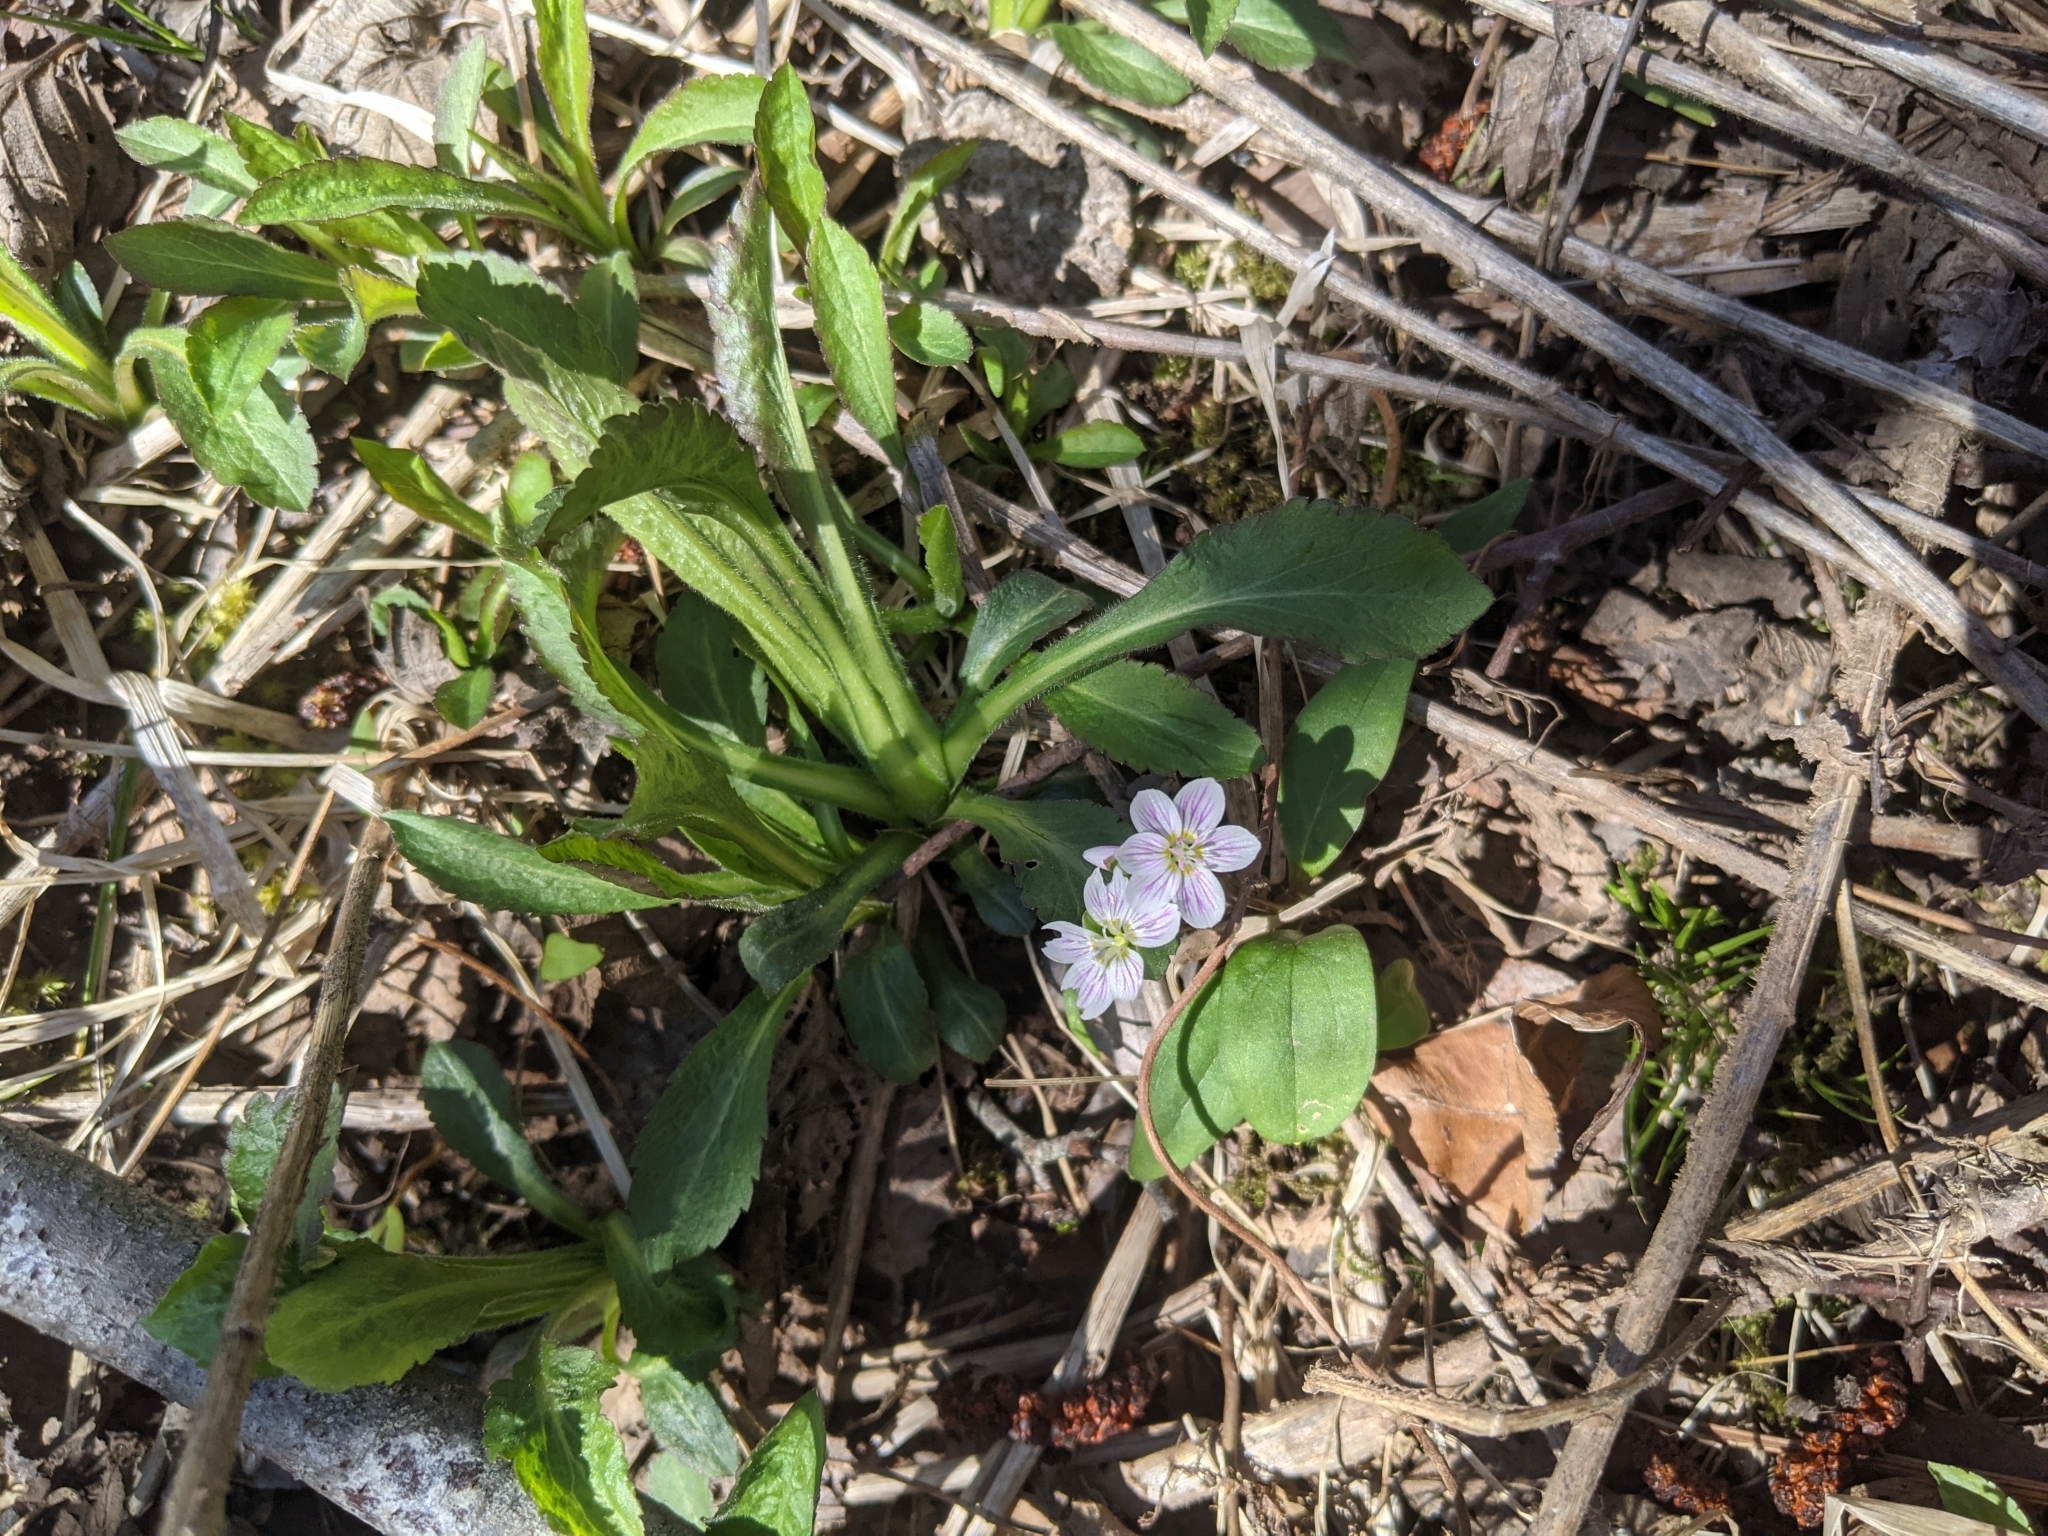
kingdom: Plantae
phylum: Tracheophyta
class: Magnoliopsida
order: Caryophyllales
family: Montiaceae
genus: Claytonia
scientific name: Claytonia caroliniana
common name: Carolina spring beauty
